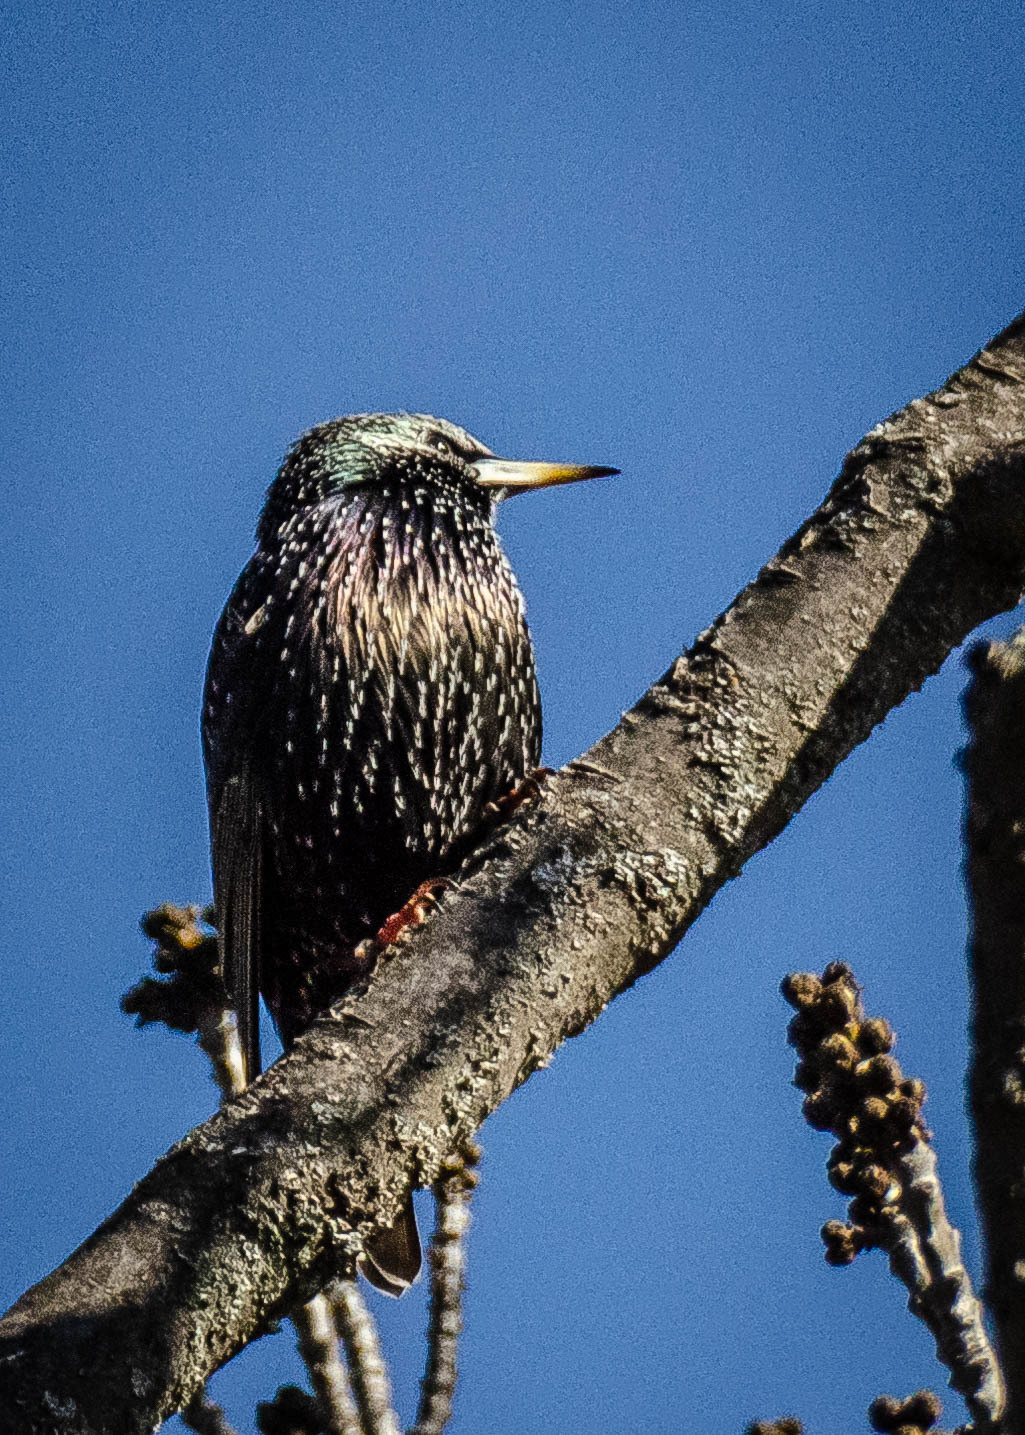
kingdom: Animalia
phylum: Chordata
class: Aves
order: Passeriformes
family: Sturnidae
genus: Sturnus
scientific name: Sturnus vulgaris
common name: Common starling
